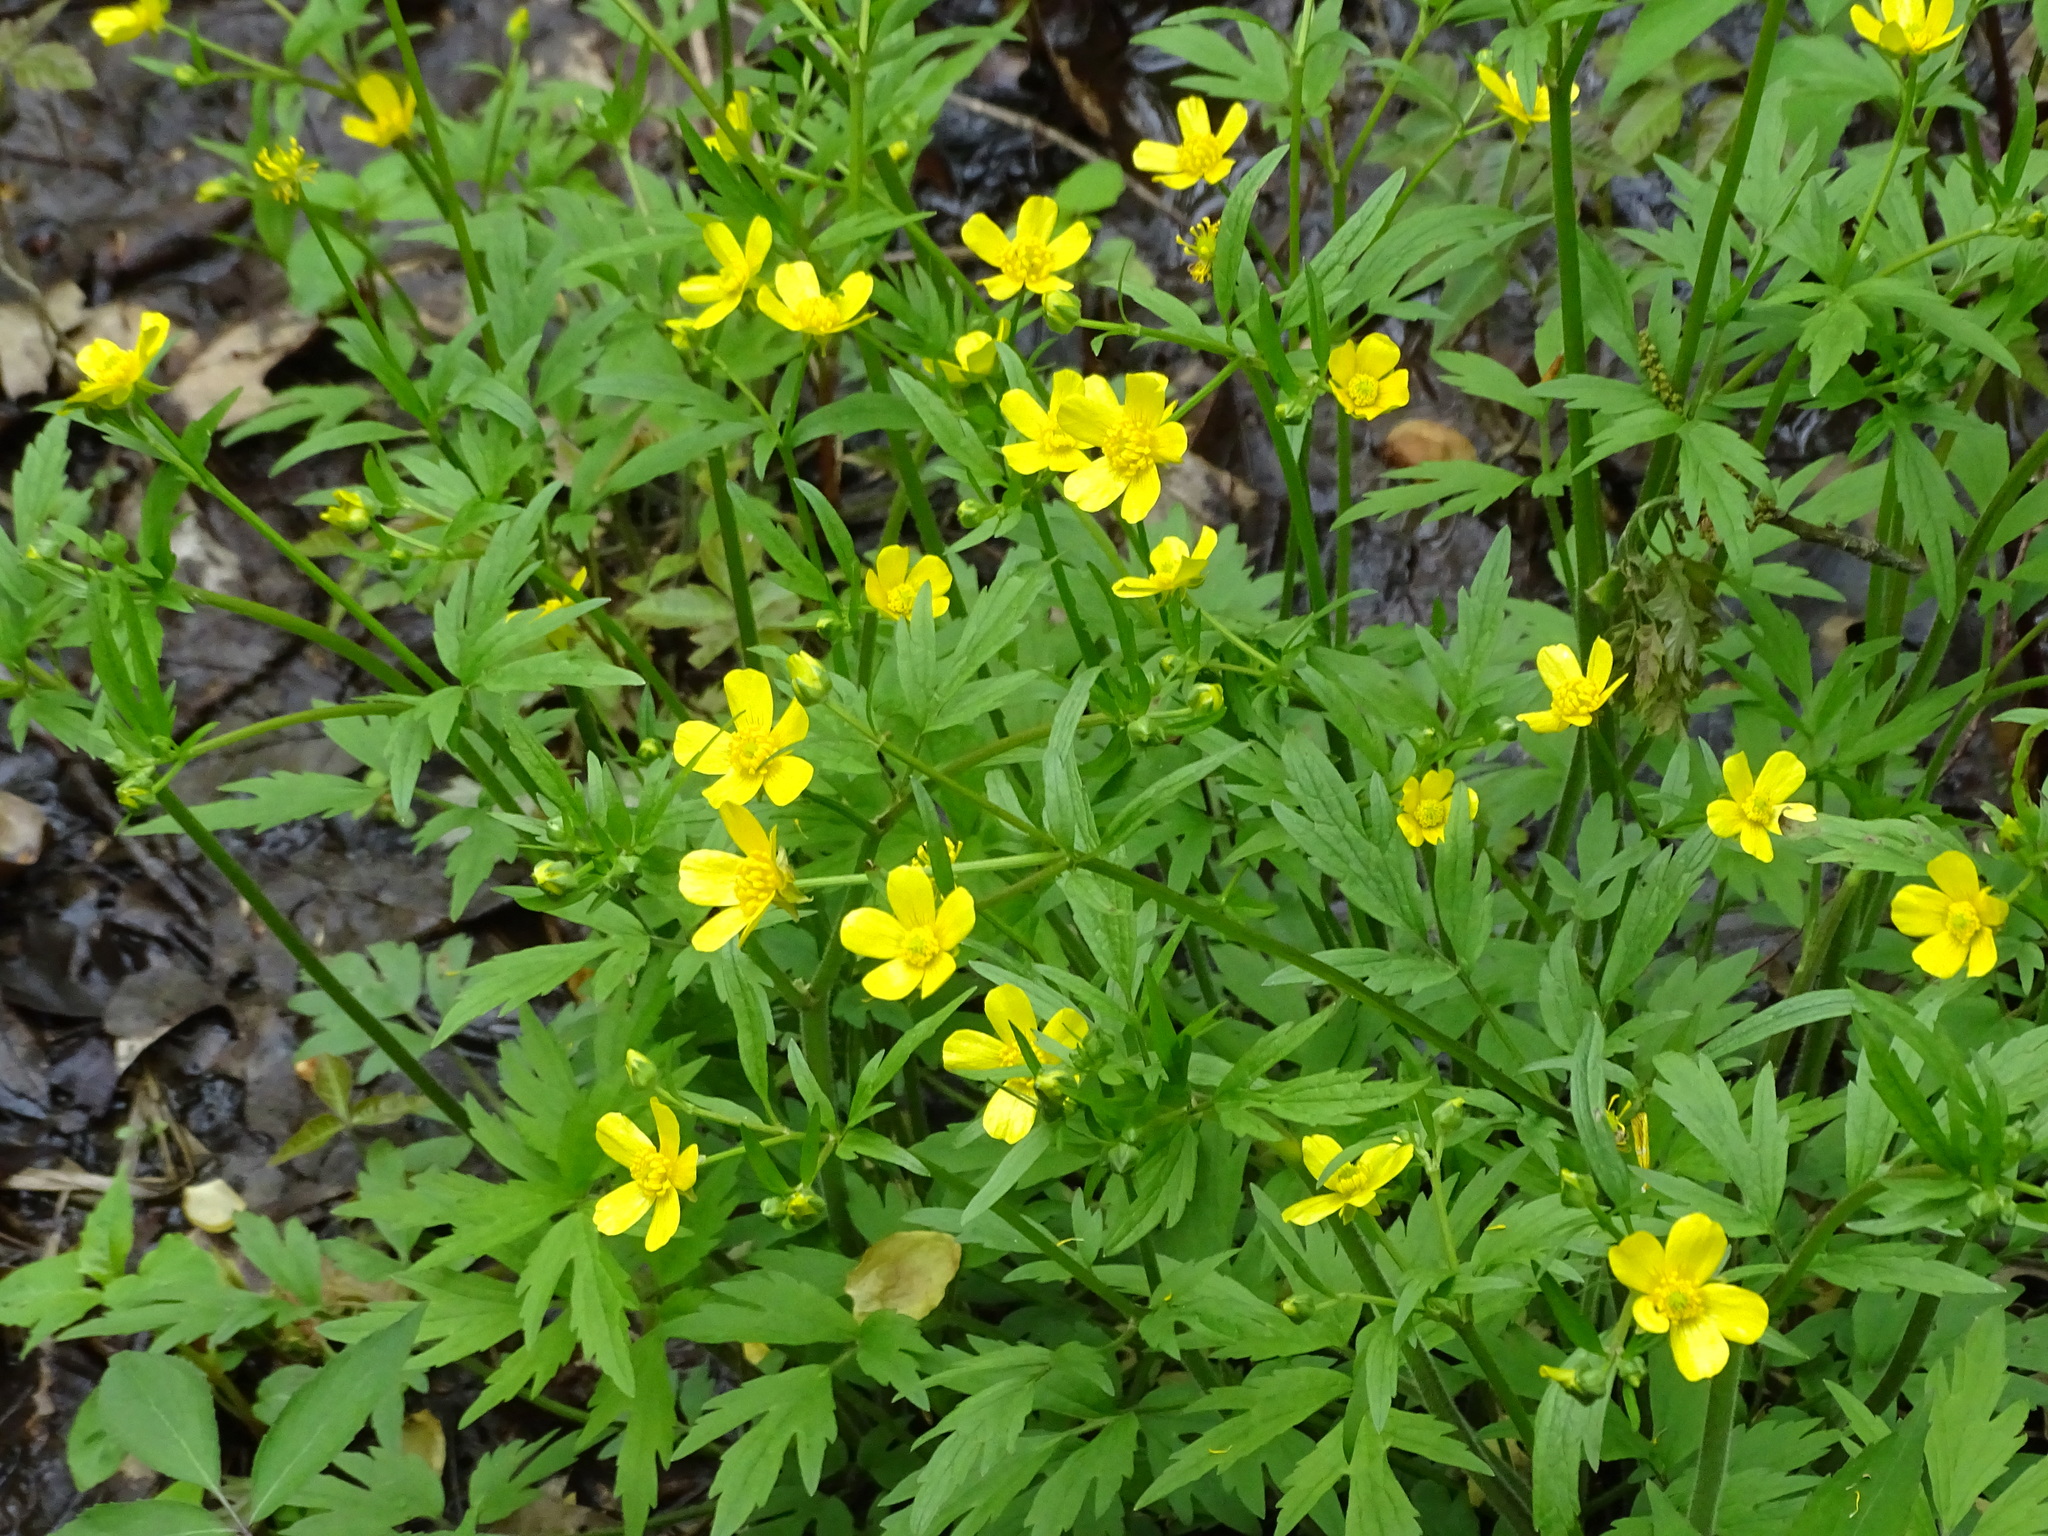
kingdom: Plantae
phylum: Tracheophyta
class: Magnoliopsida
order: Ranunculales
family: Ranunculaceae
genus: Ranunculus
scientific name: Ranunculus hispidus
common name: Bristly buttercup
